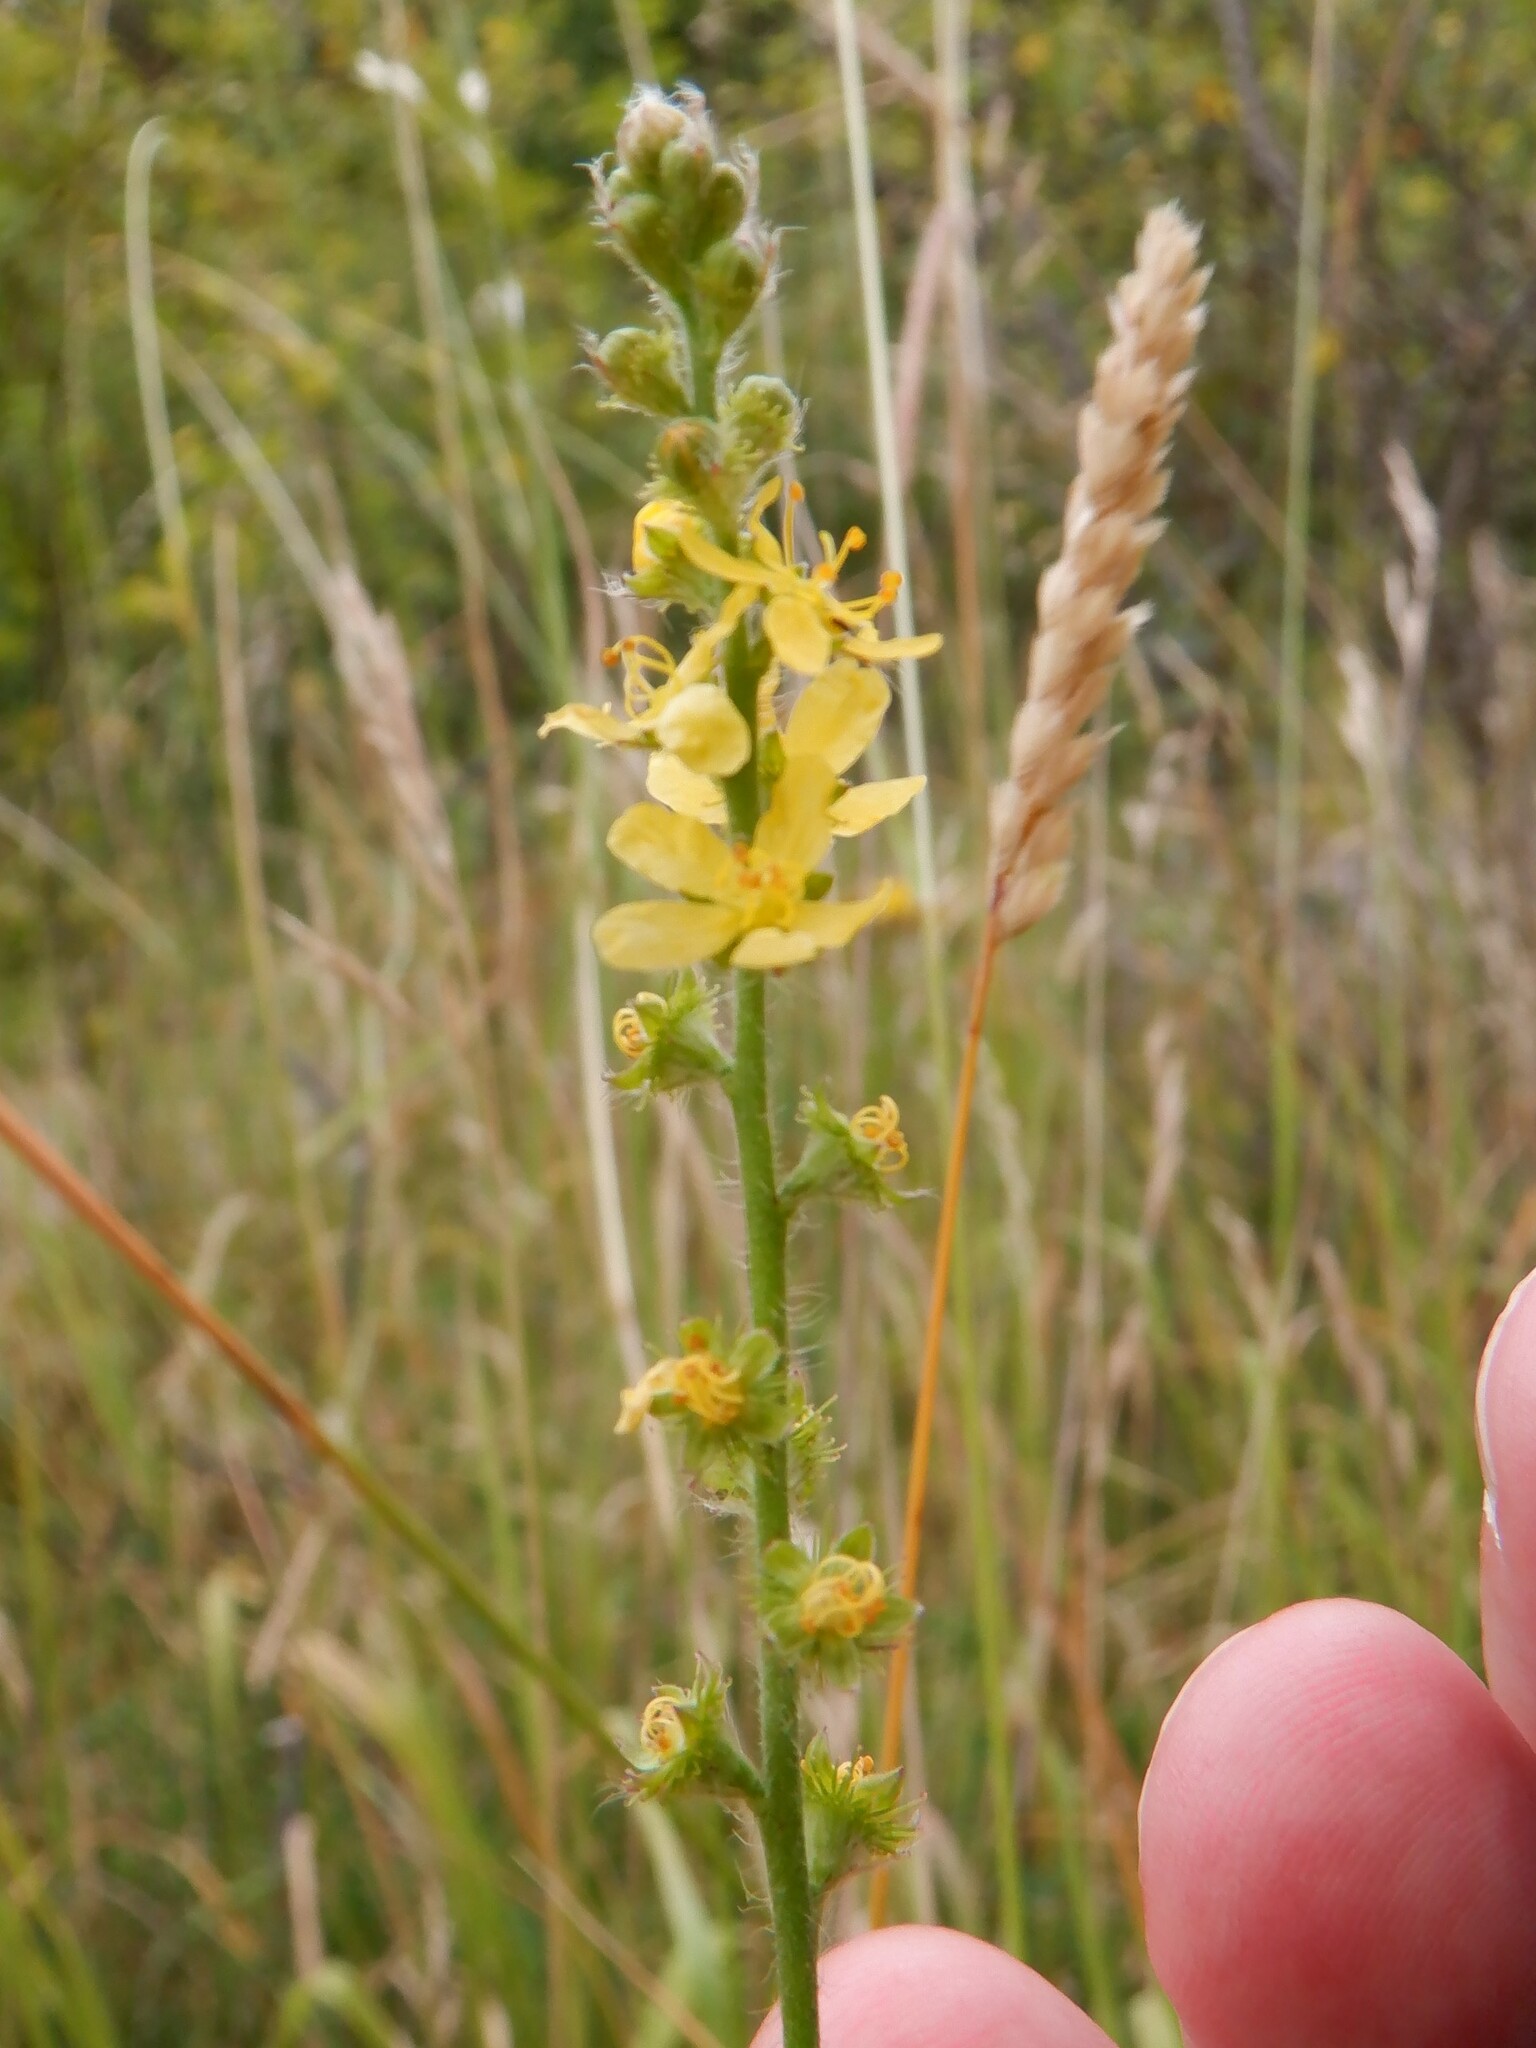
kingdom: Plantae
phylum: Tracheophyta
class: Magnoliopsida
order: Rosales
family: Rosaceae
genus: Agrimonia
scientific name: Agrimonia eupatoria
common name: Agrimony
